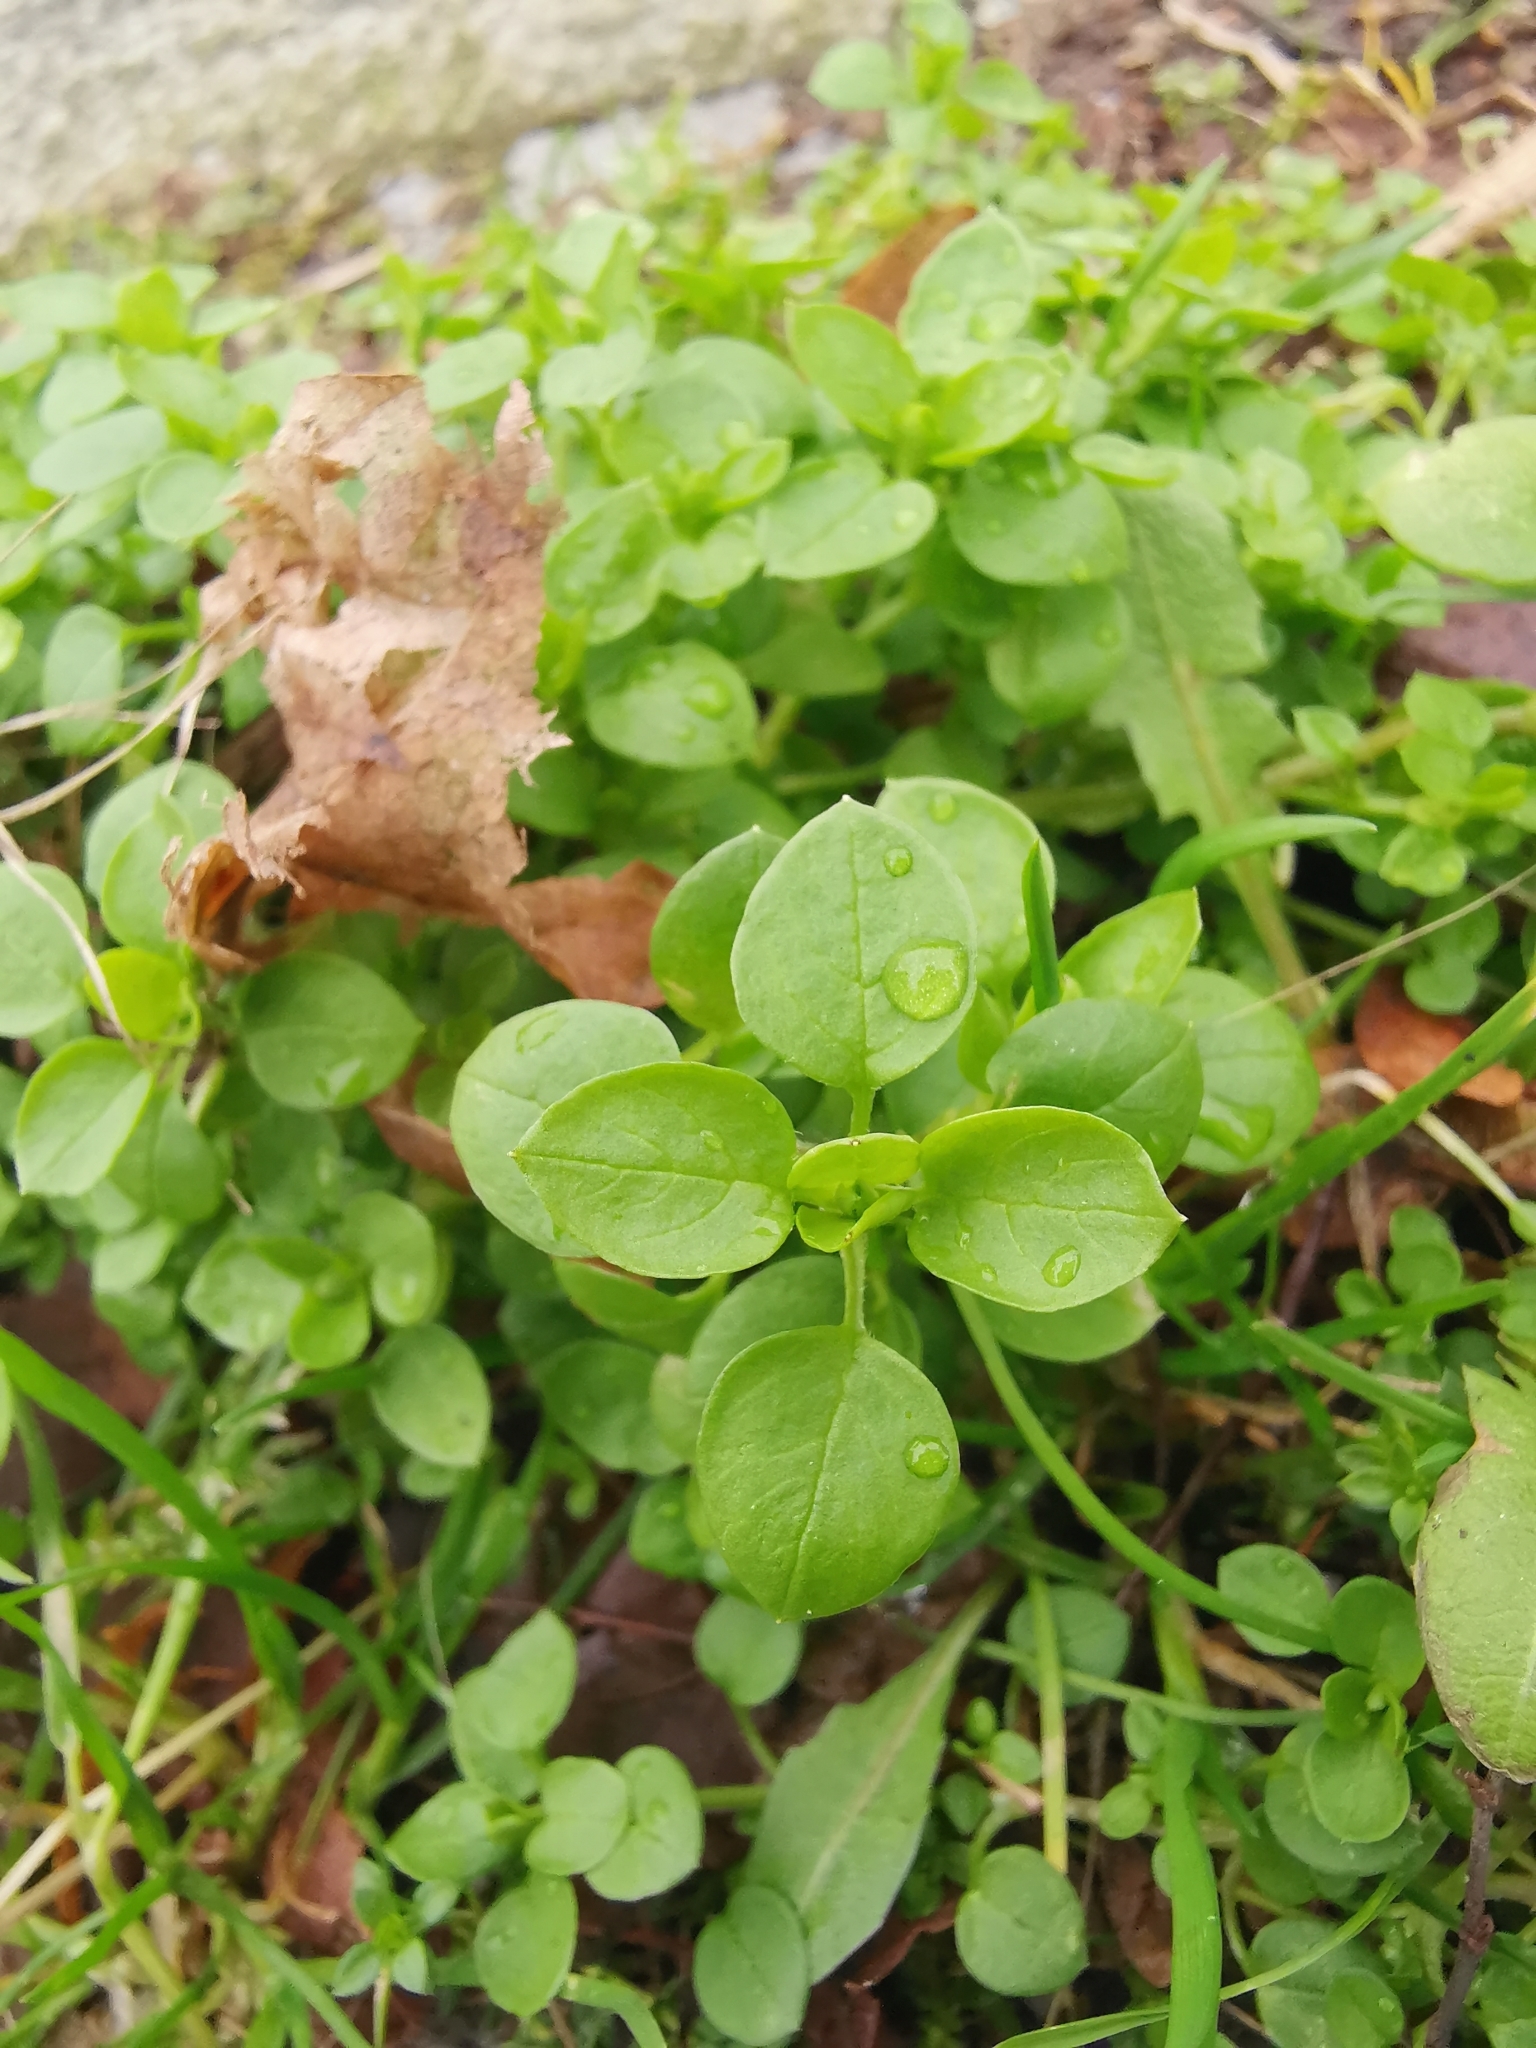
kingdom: Plantae
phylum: Tracheophyta
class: Magnoliopsida
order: Caryophyllales
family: Caryophyllaceae
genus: Stellaria
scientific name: Stellaria media
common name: Common chickweed
